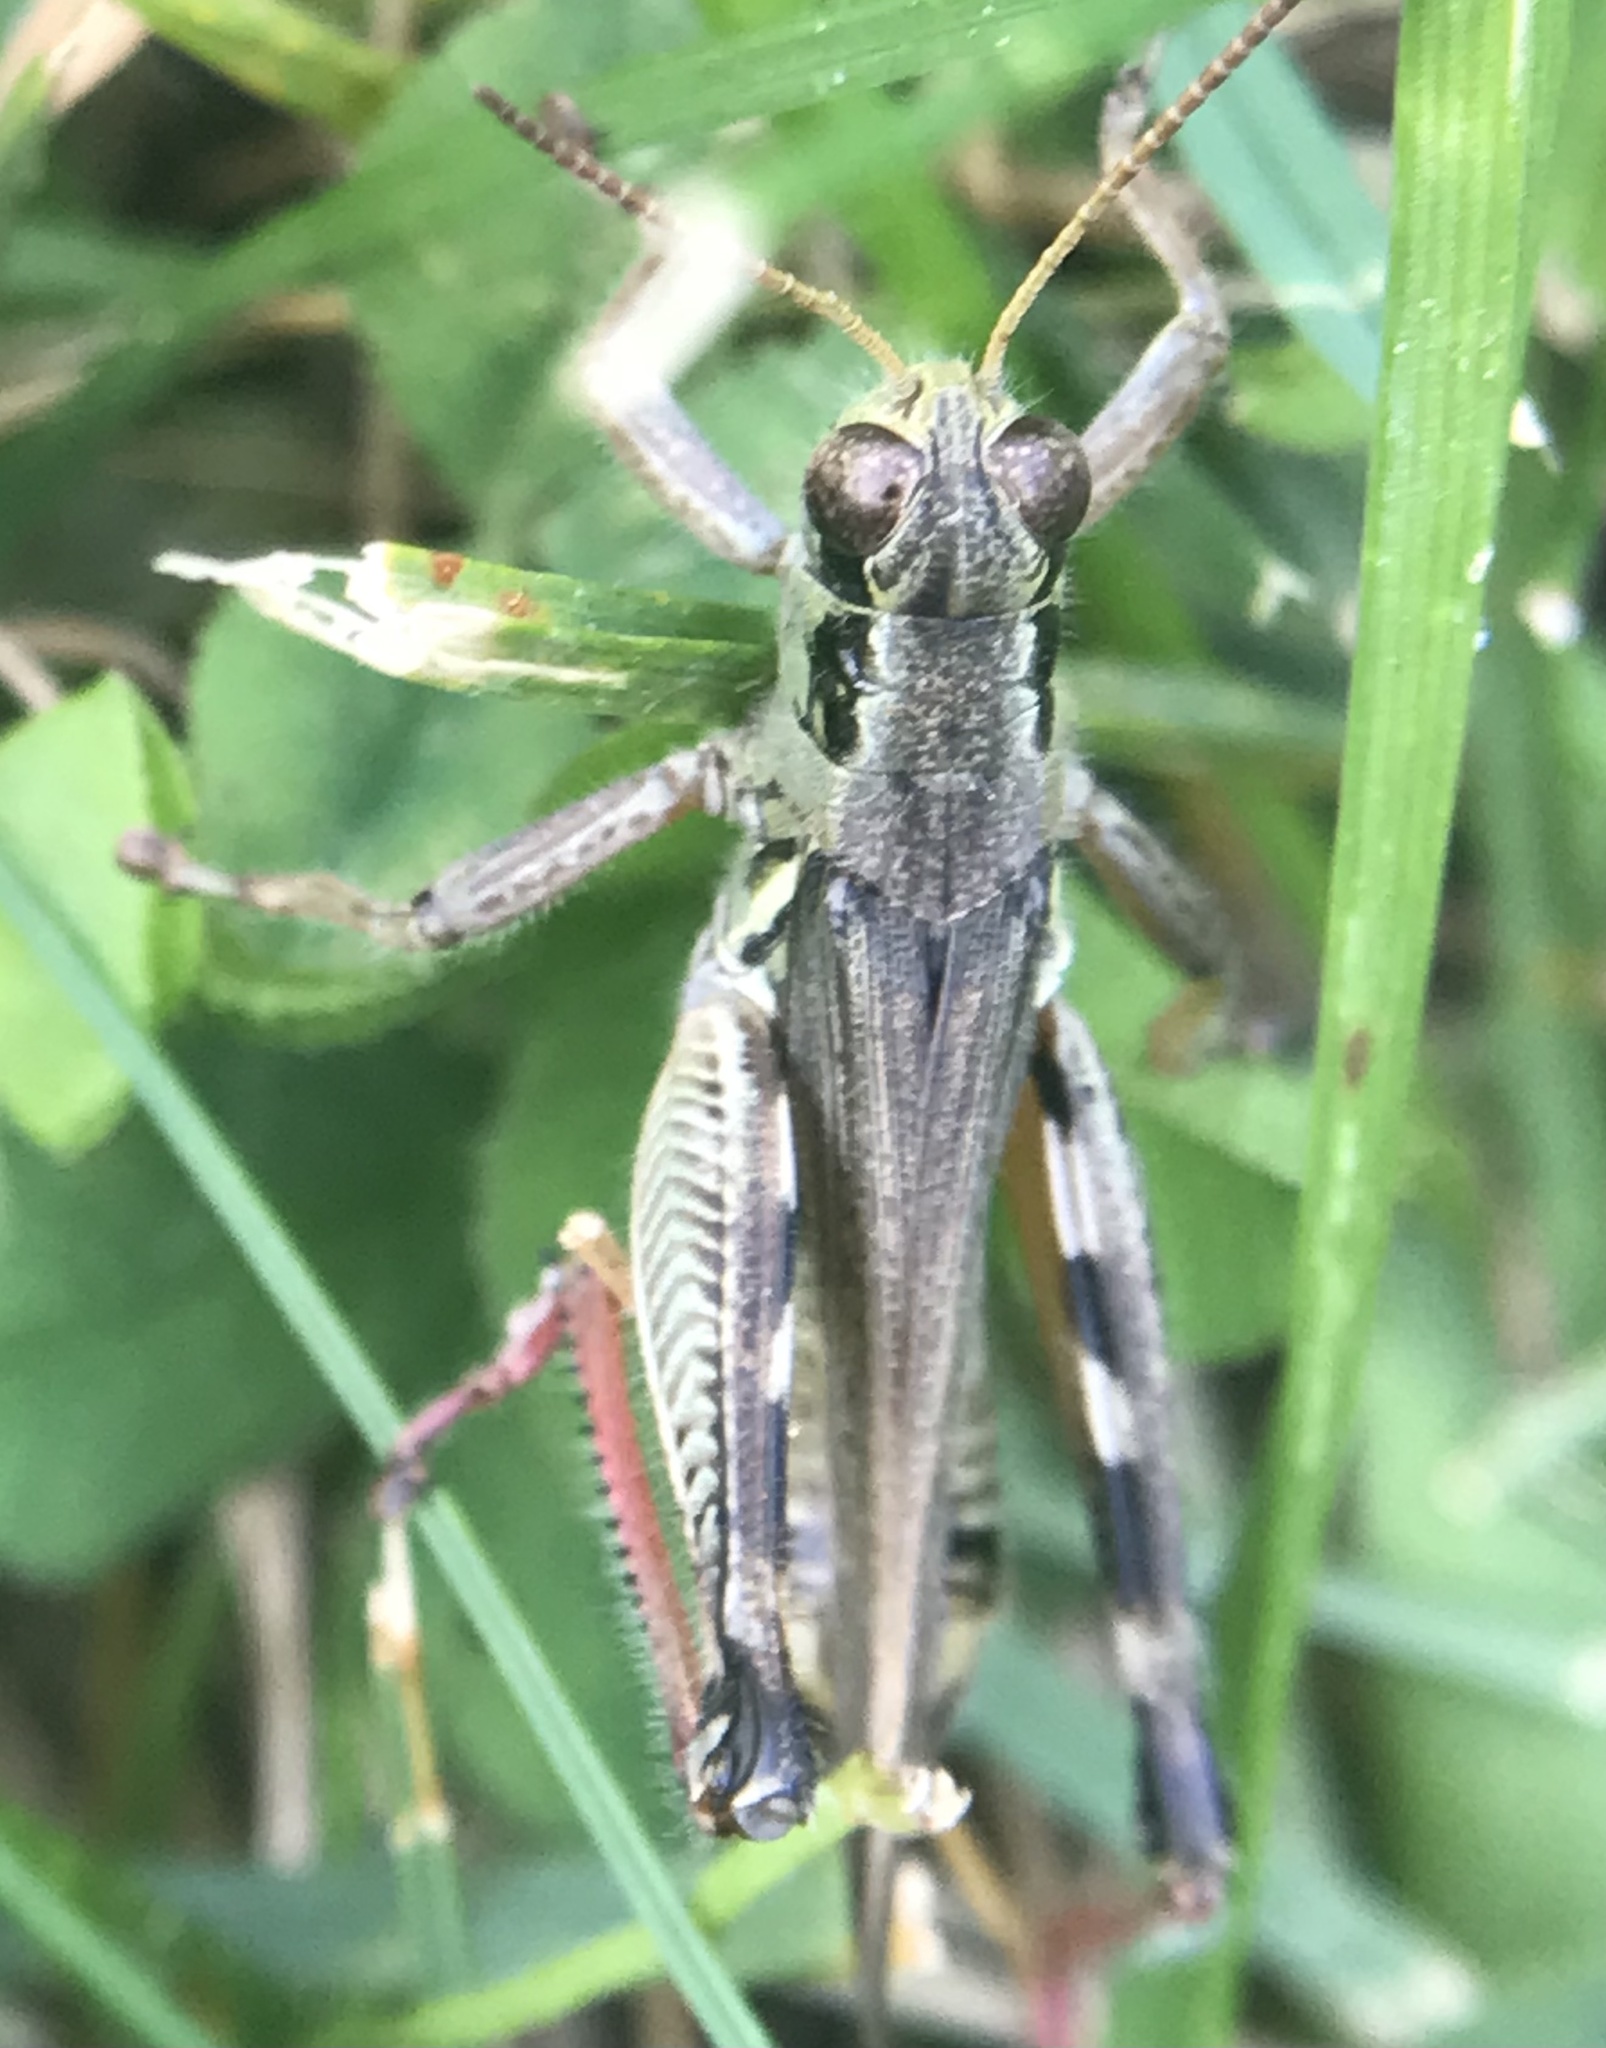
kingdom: Animalia
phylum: Arthropoda
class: Insecta
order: Orthoptera
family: Acrididae
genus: Melanoplus
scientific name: Melanoplus femurrubrum
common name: Red-legged grasshopper
